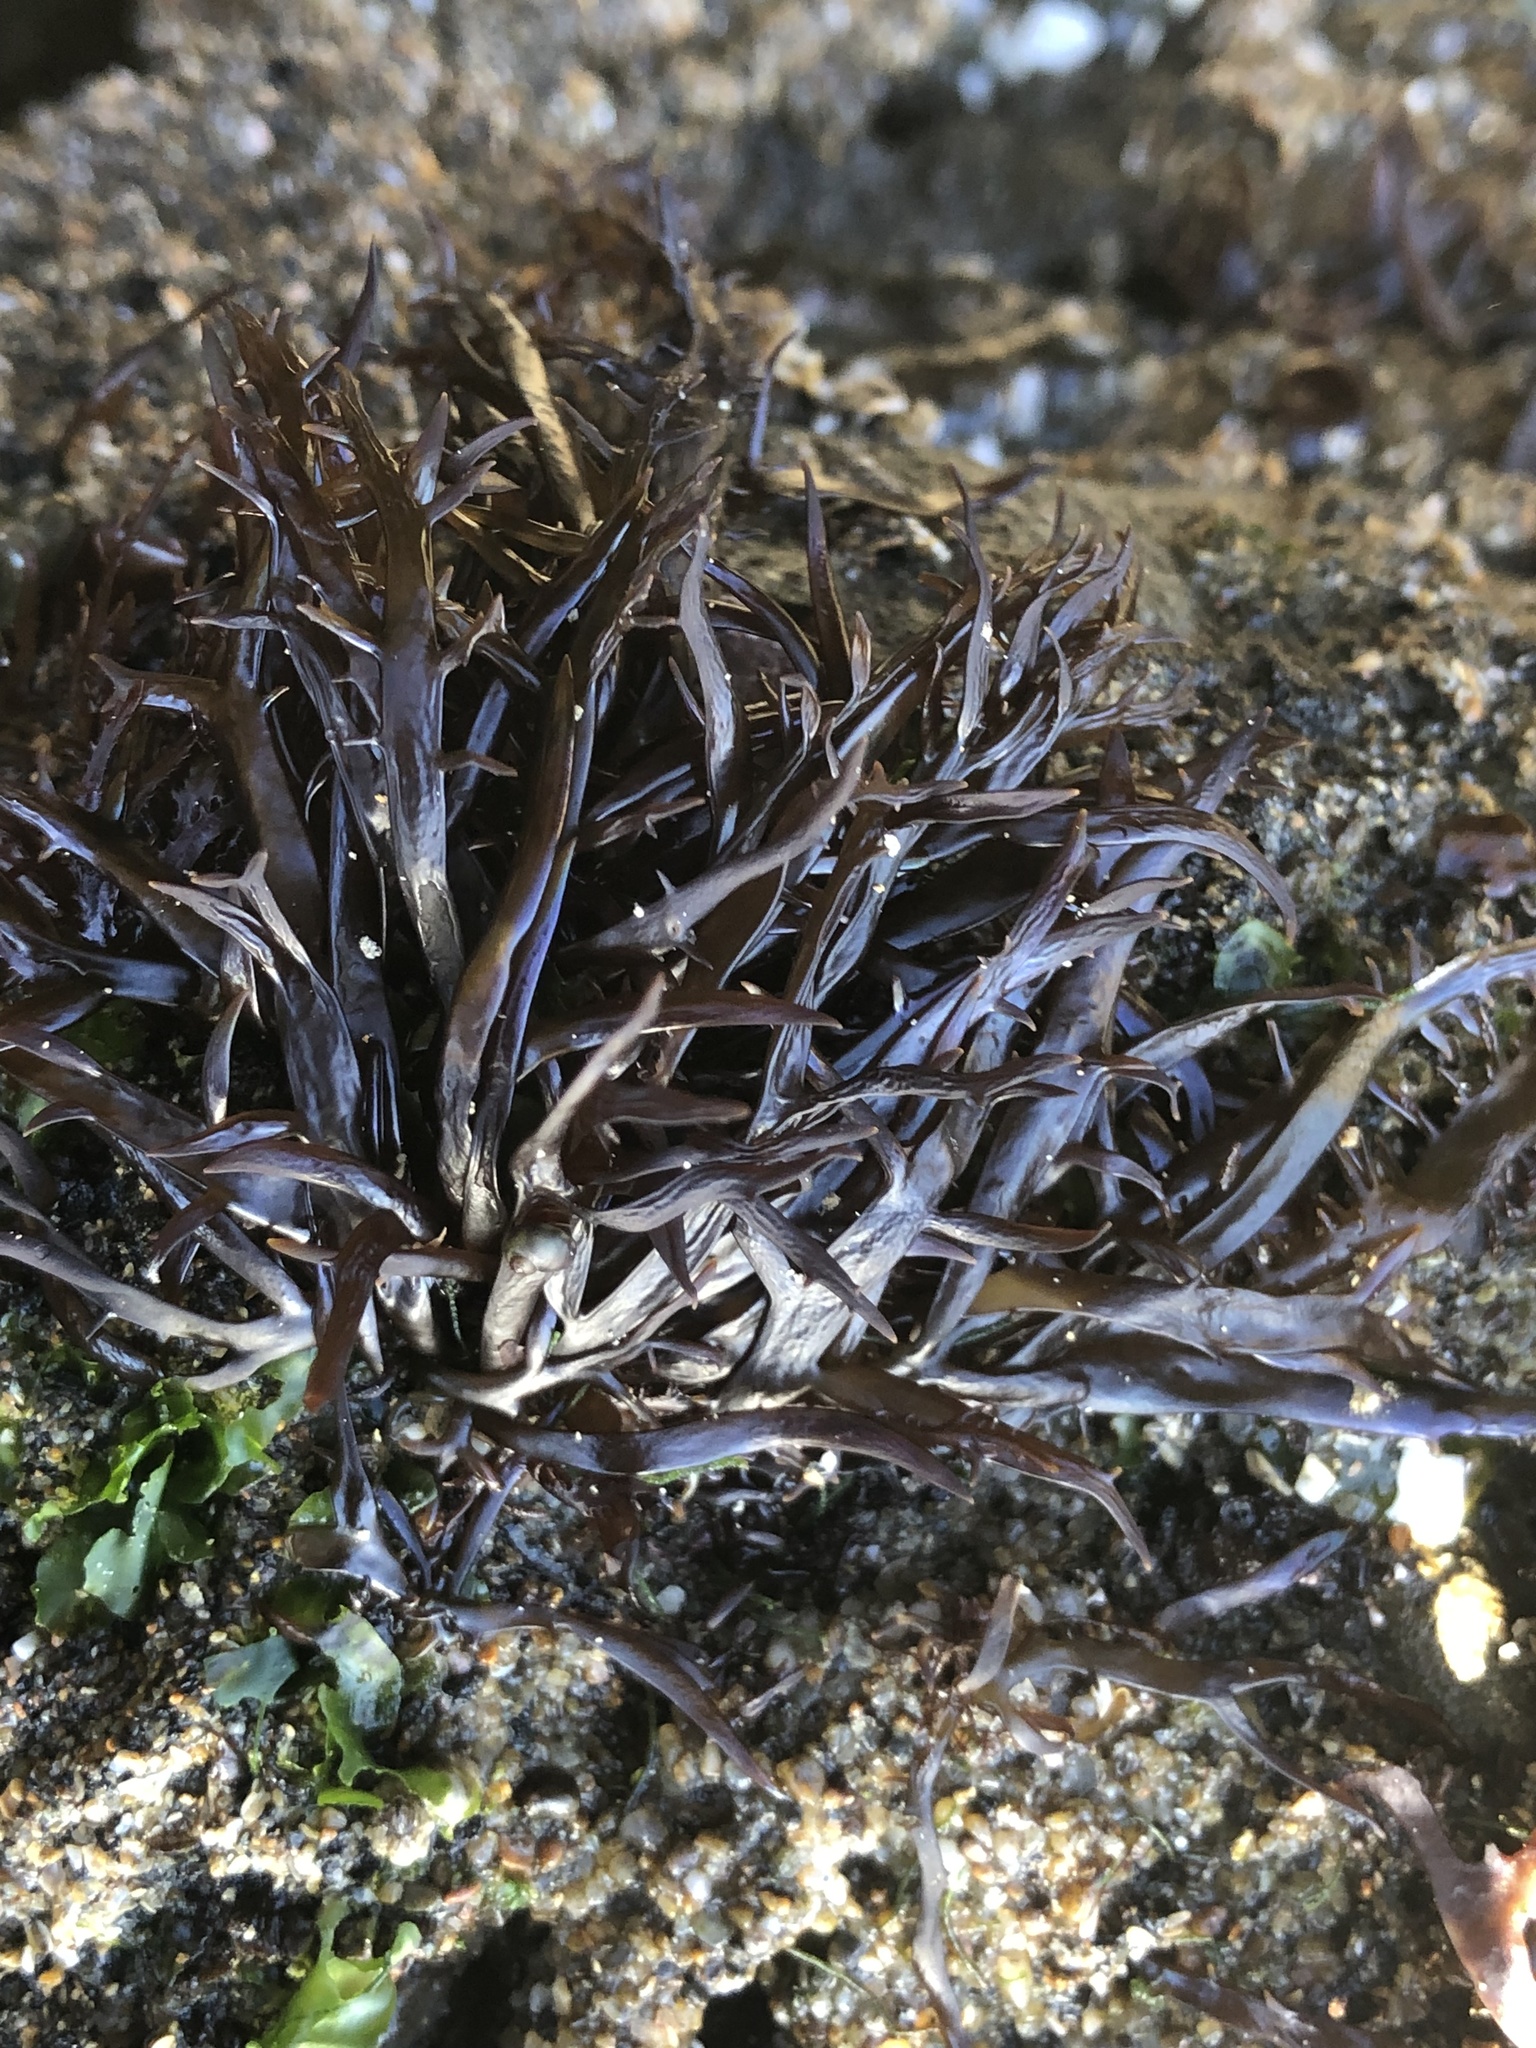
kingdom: Plantae
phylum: Rhodophyta
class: Florideophyceae
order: Gigartinales
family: Gigartinaceae
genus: Chondracanthus
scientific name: Chondracanthus canaliculatus
